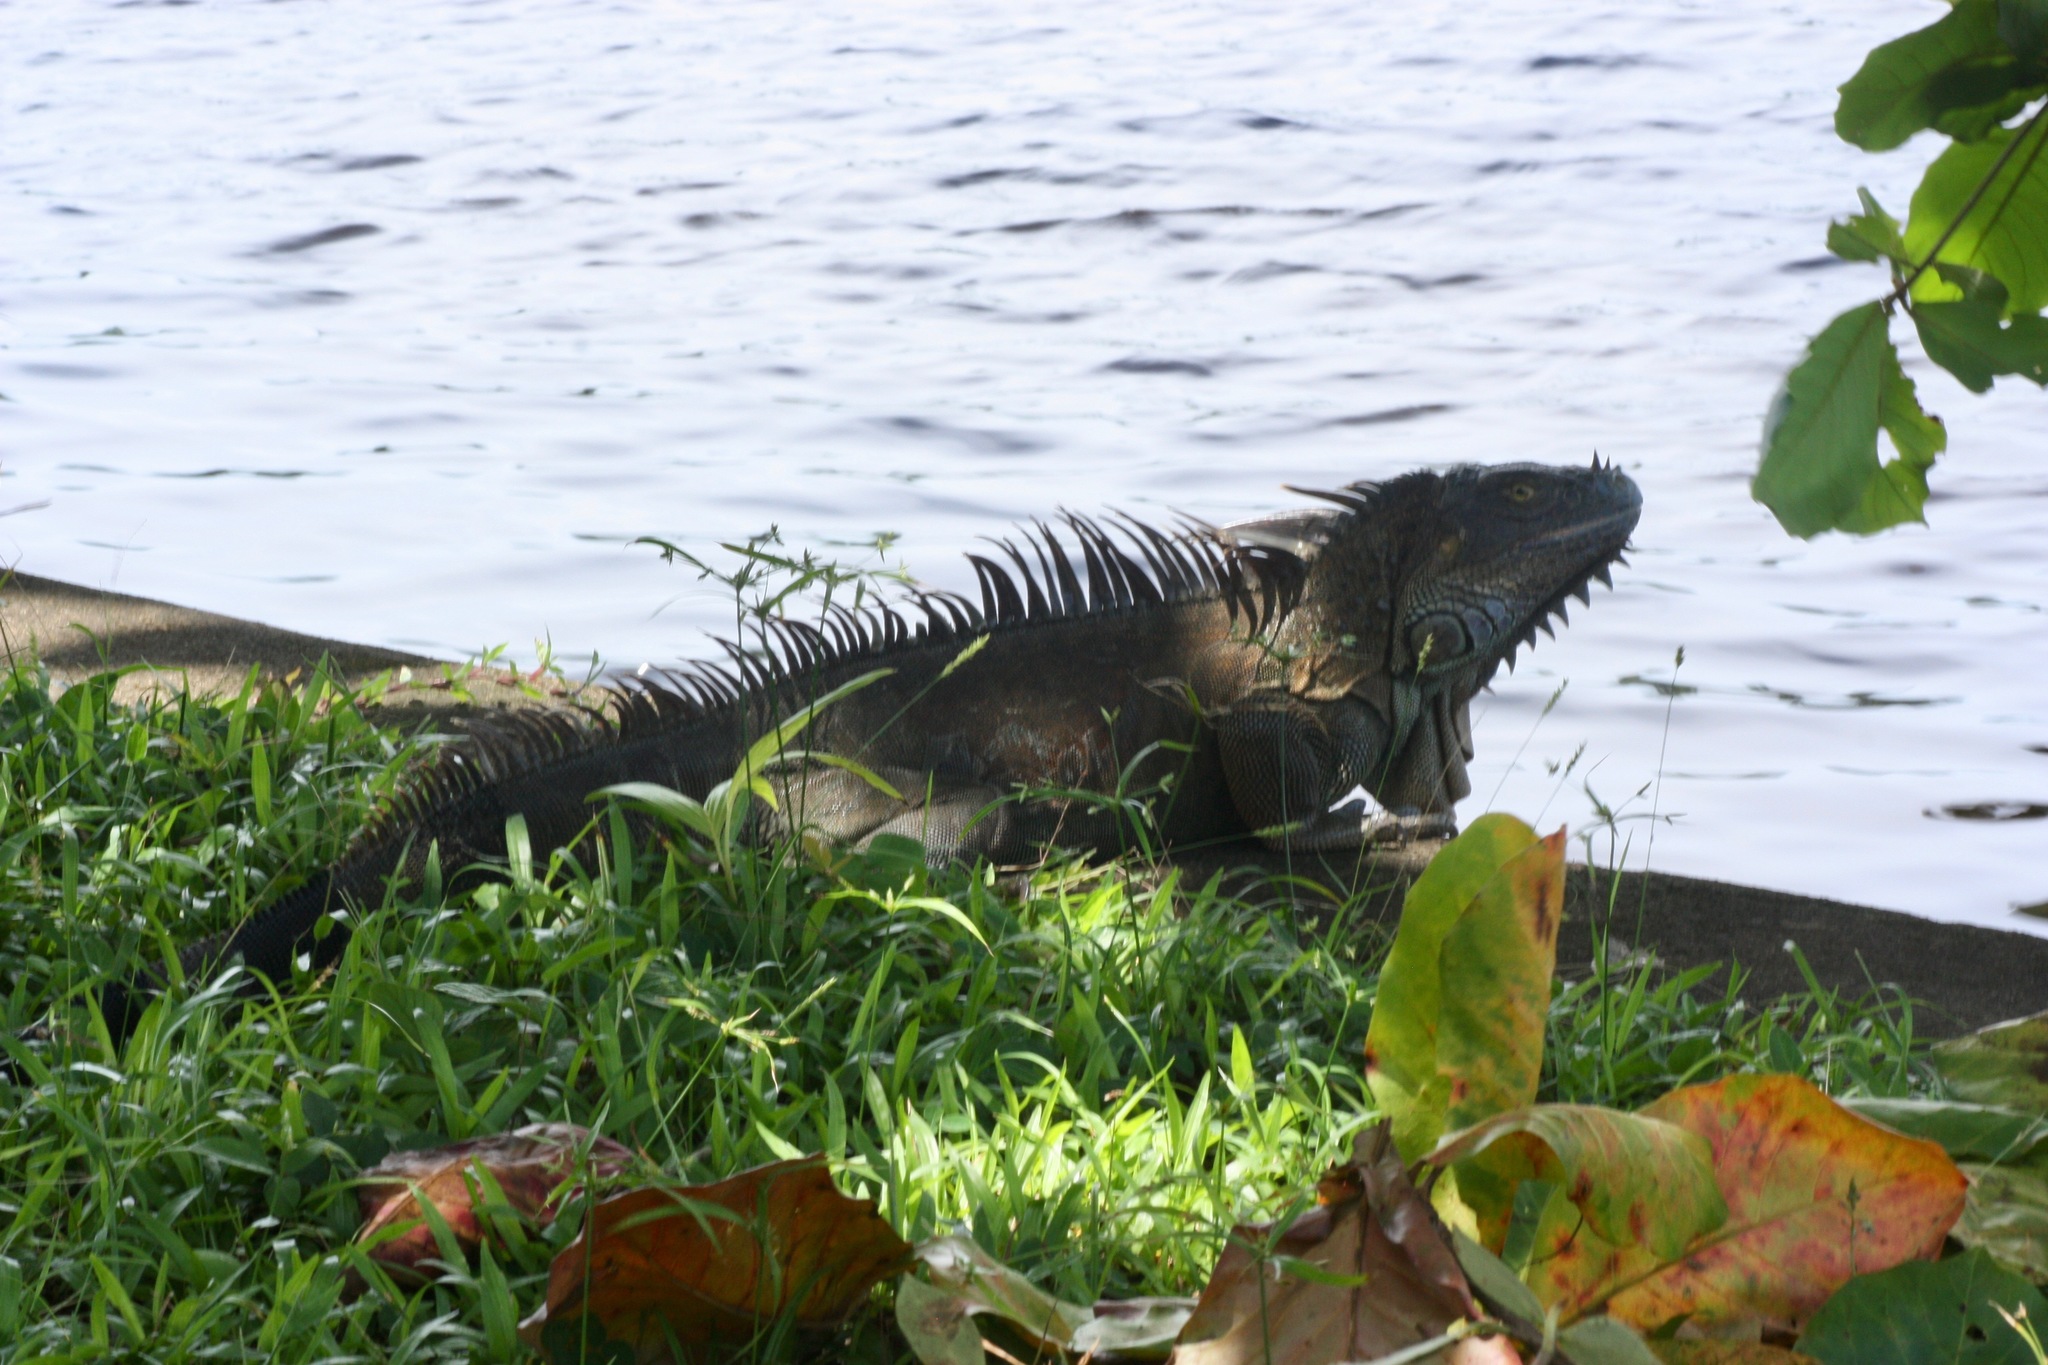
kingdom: Animalia
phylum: Chordata
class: Squamata
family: Iguanidae
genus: Iguana
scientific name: Iguana iguana
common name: Green iguana
